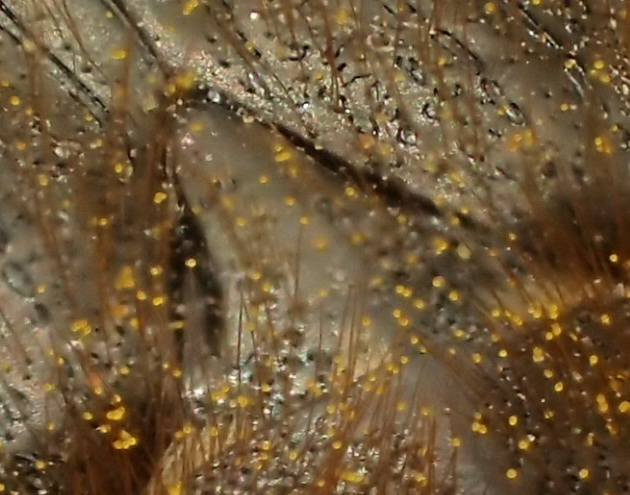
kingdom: Animalia
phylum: Arthropoda
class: Insecta
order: Coleoptera
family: Scarabaeidae
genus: Tropinota
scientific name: Tropinota hirta
